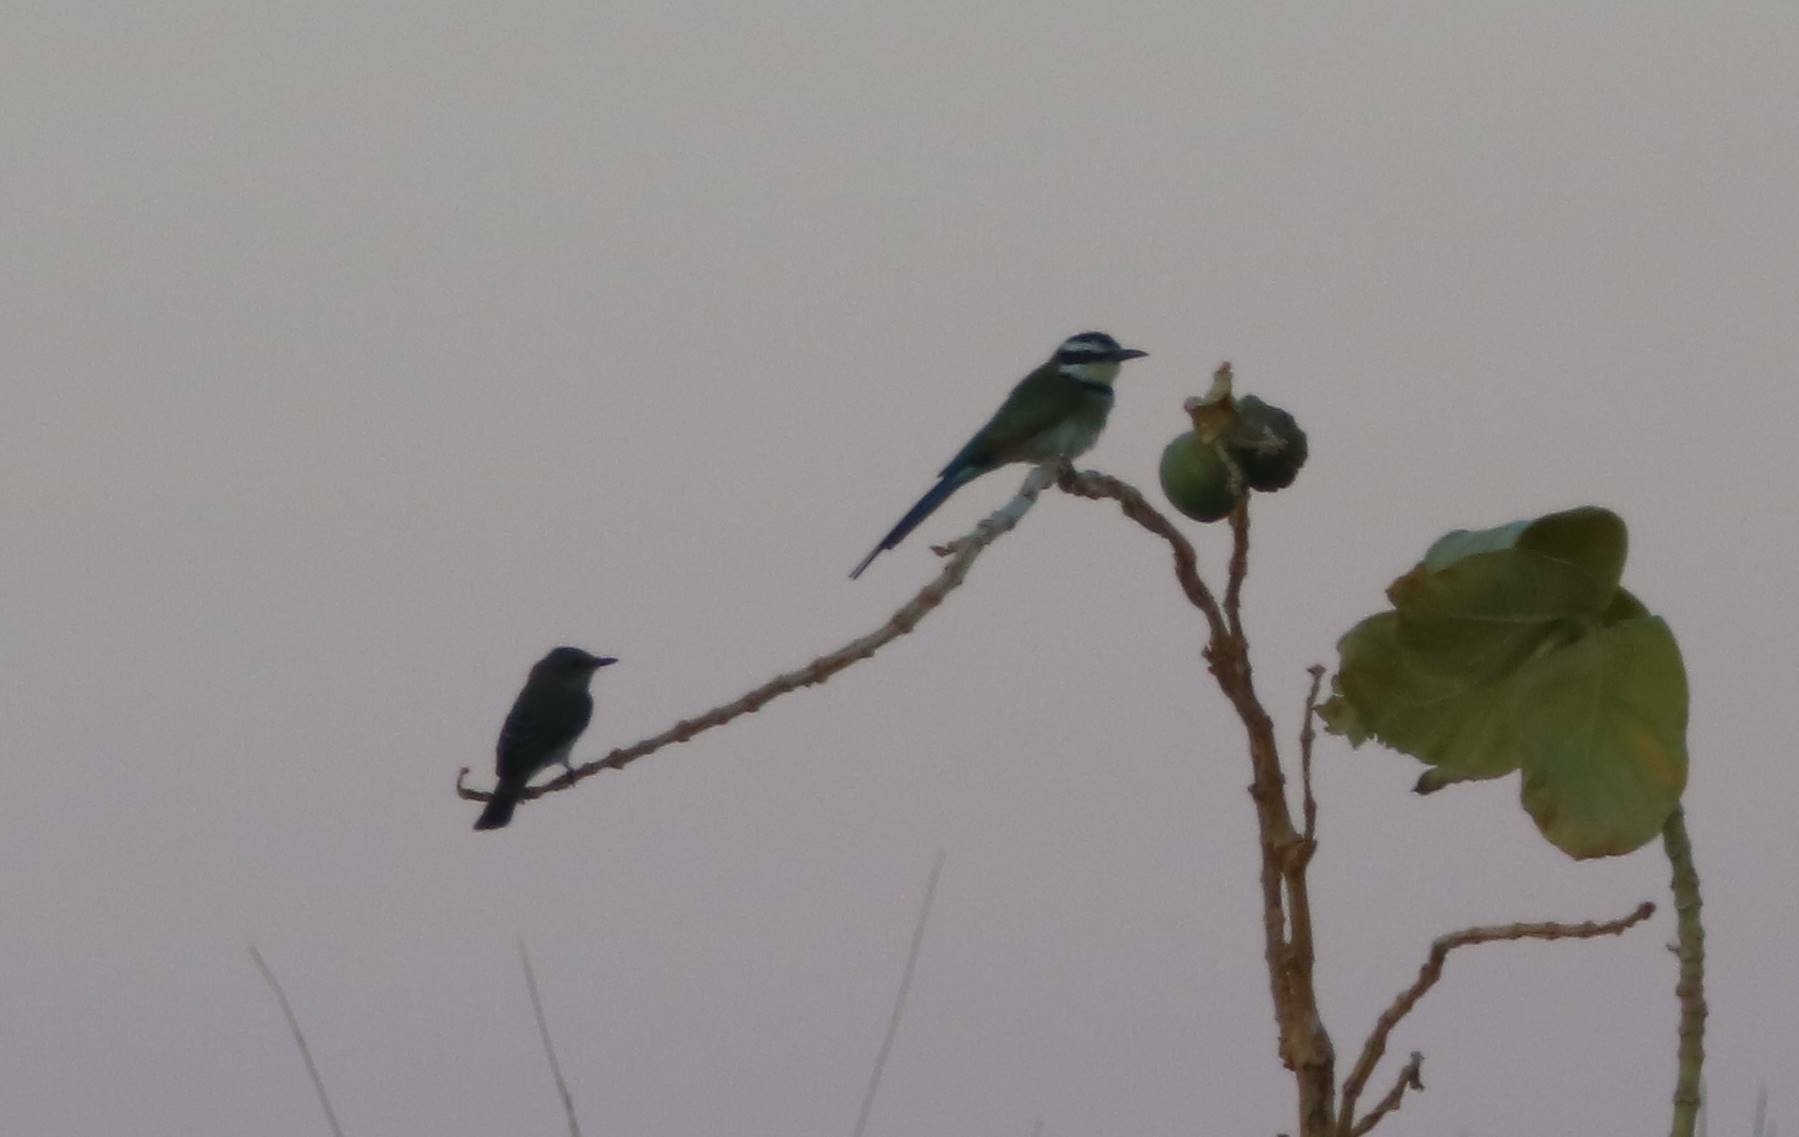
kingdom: Animalia
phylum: Chordata
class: Aves
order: Coraciiformes
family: Meropidae
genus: Merops
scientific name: Merops albicollis
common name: White-throated bee-eater
